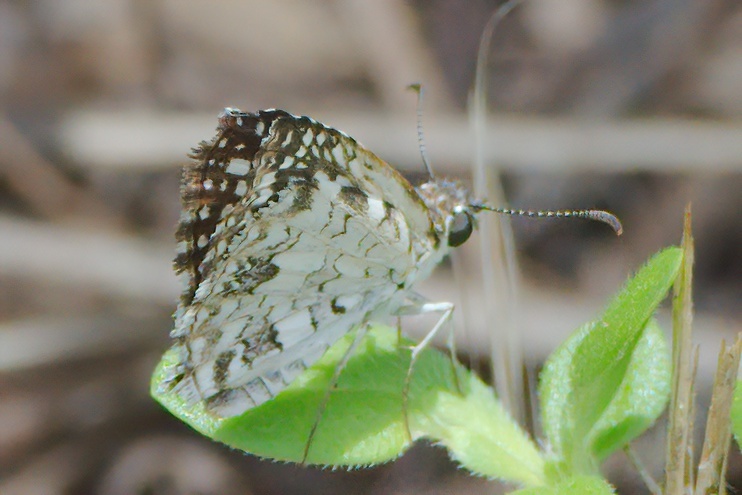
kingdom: Animalia
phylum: Arthropoda
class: Insecta
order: Lepidoptera
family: Hesperiidae
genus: Pyrgus
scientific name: Pyrgus oileus
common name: Tropical checkered-skipper
